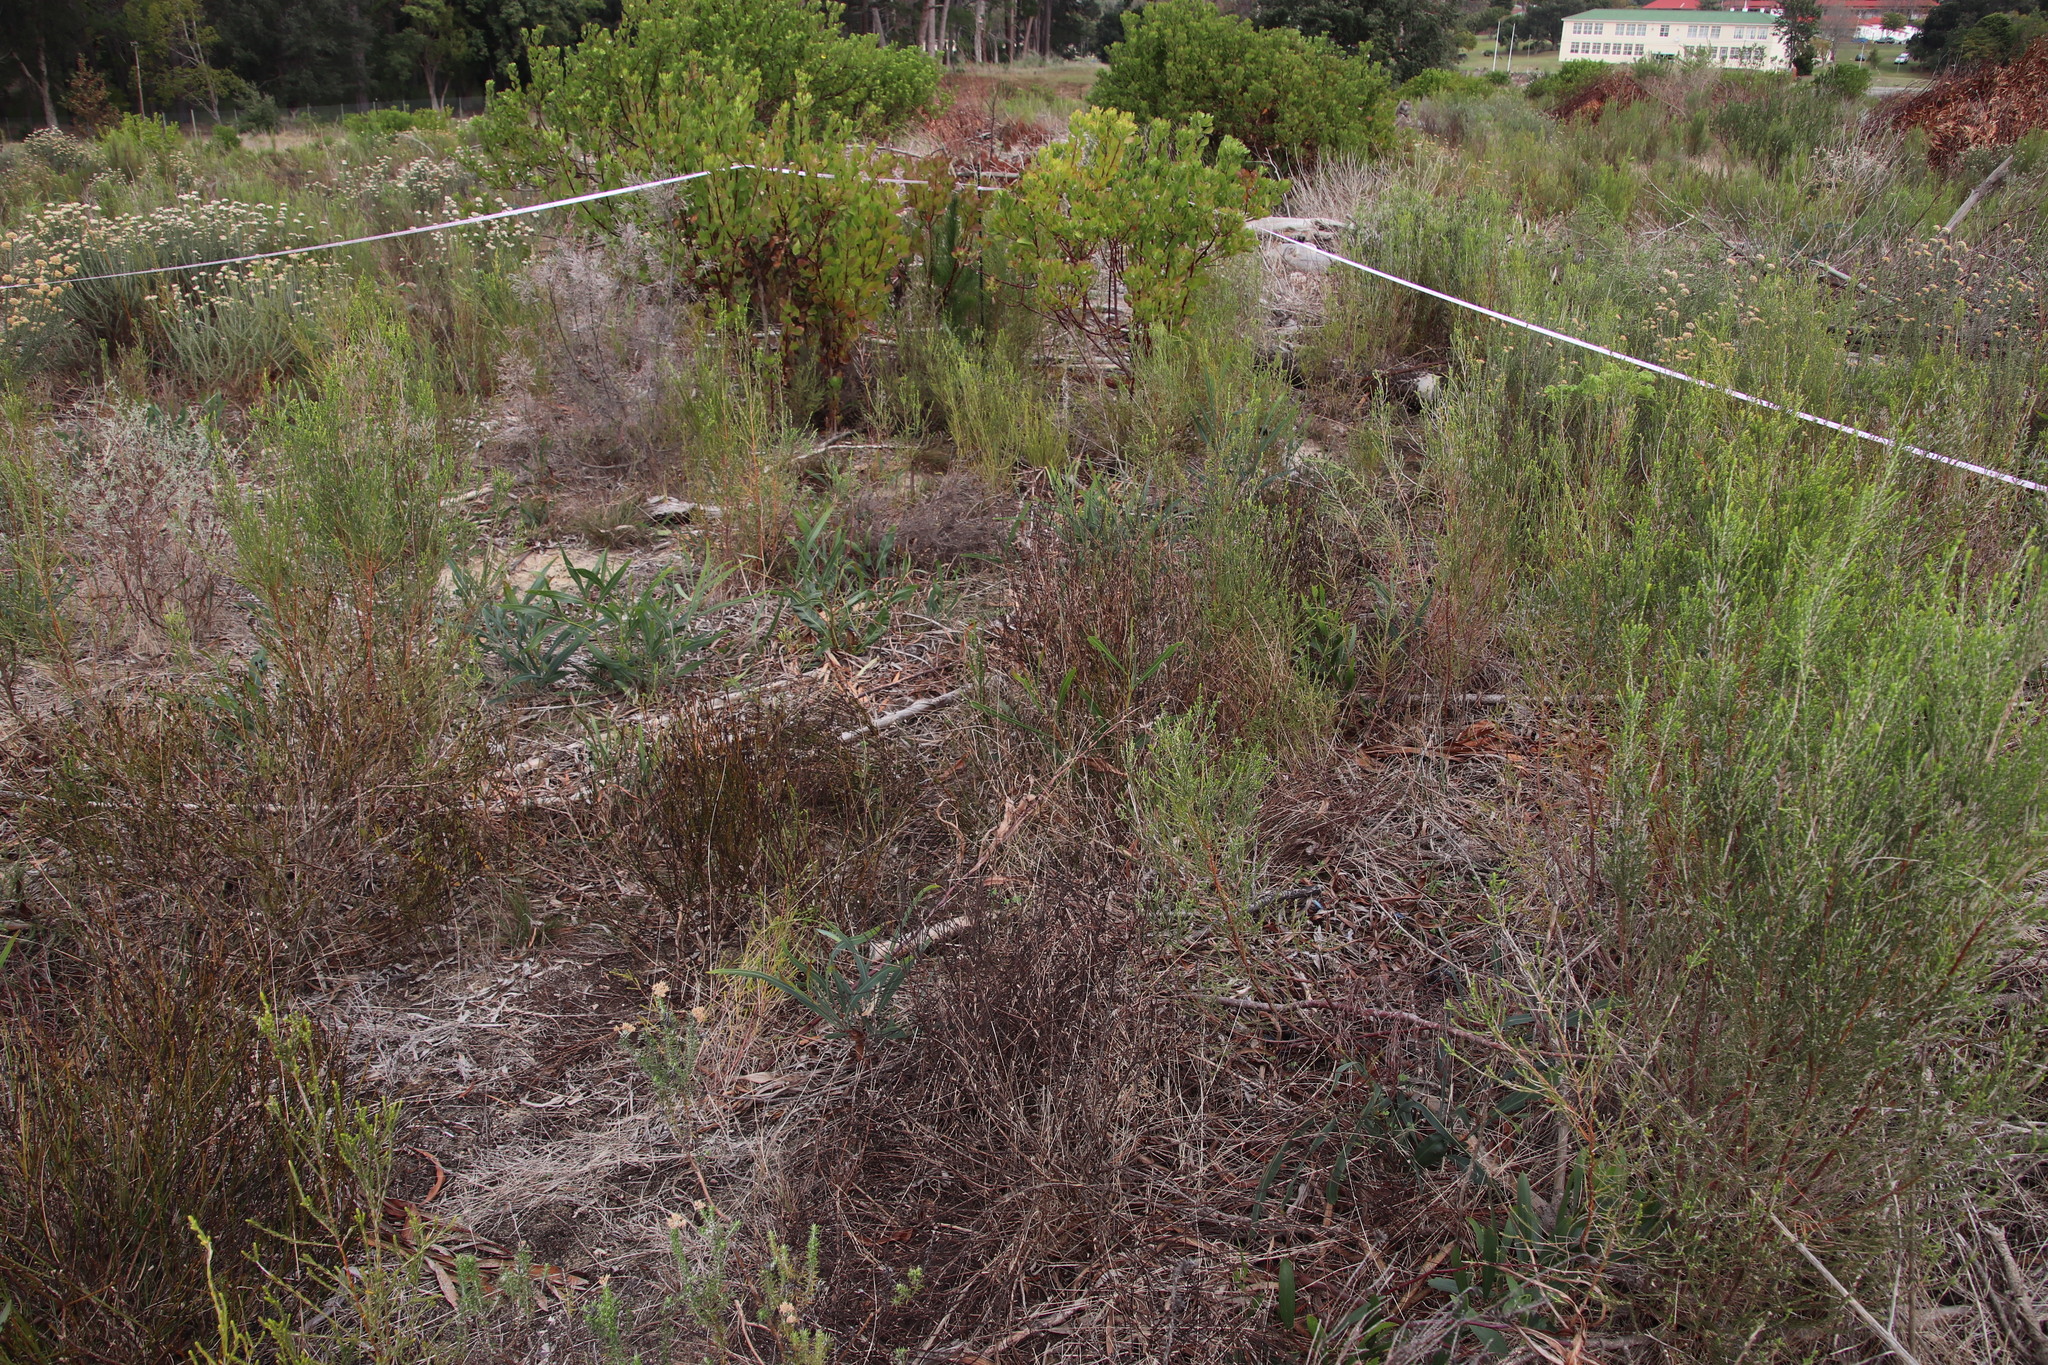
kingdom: Plantae
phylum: Tracheophyta
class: Magnoliopsida
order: Santalales
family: Thesiaceae
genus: Thesium
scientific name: Thesium aggregatum
